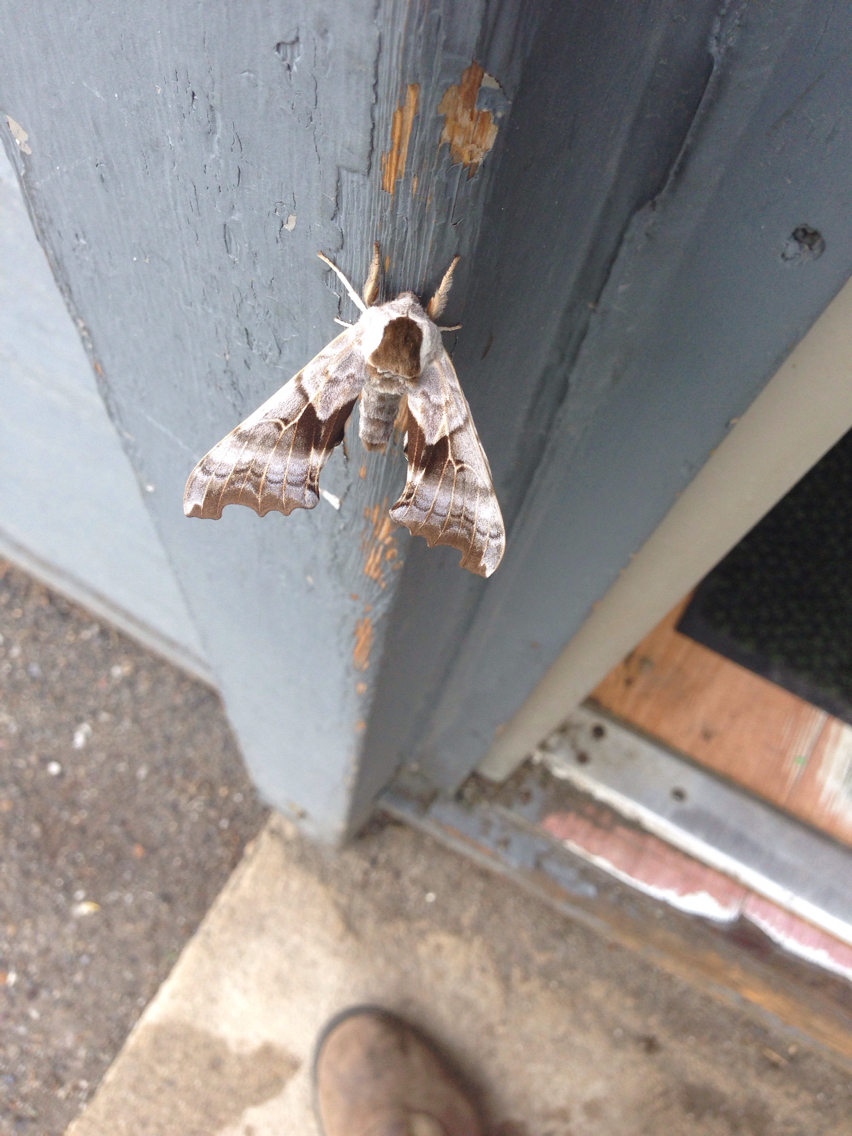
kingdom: Animalia
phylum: Arthropoda
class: Insecta
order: Lepidoptera
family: Sphingidae
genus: Smerinthus
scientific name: Smerinthus cerisyi
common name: Cerisy's sphinx moth
